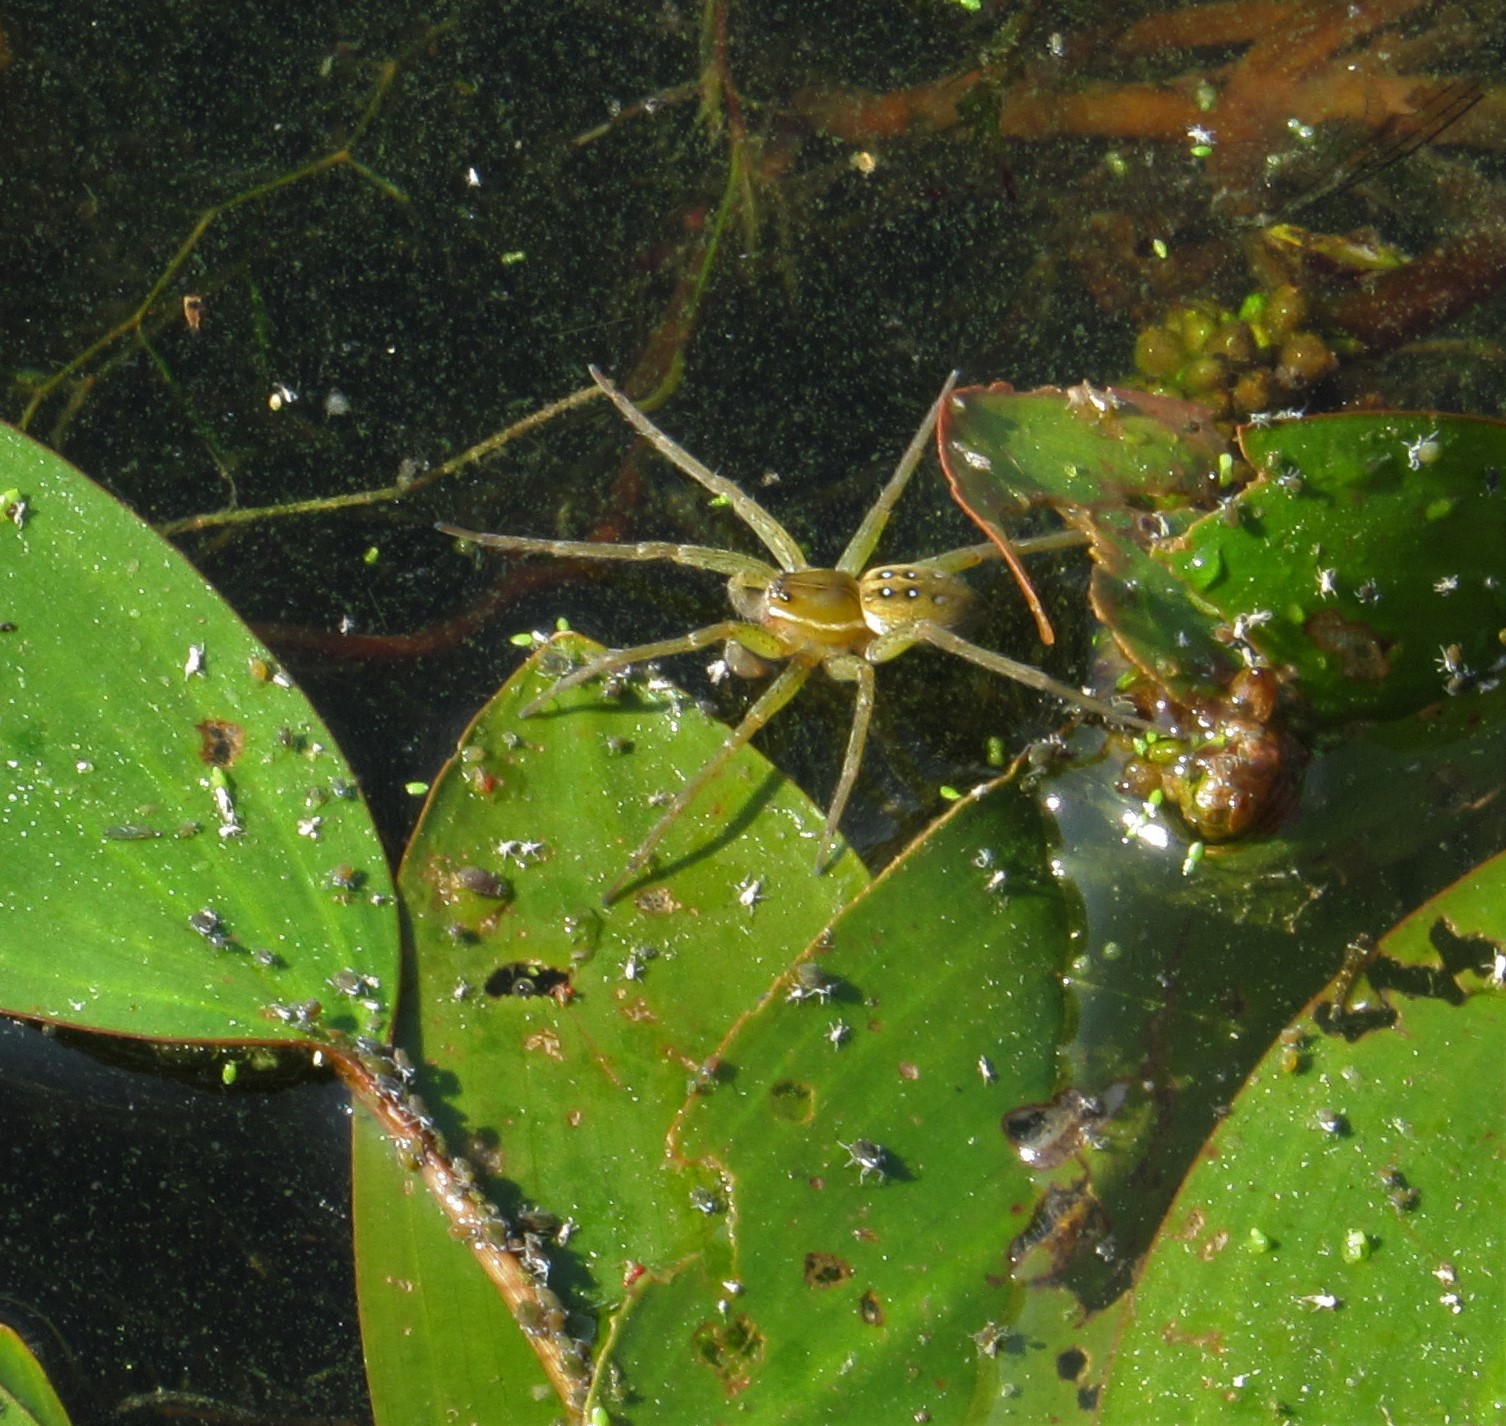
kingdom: Animalia
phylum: Arthropoda
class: Arachnida
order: Araneae
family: Pisauridae
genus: Dolomedes
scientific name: Dolomedes triton
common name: Six-spotted fishing spider
